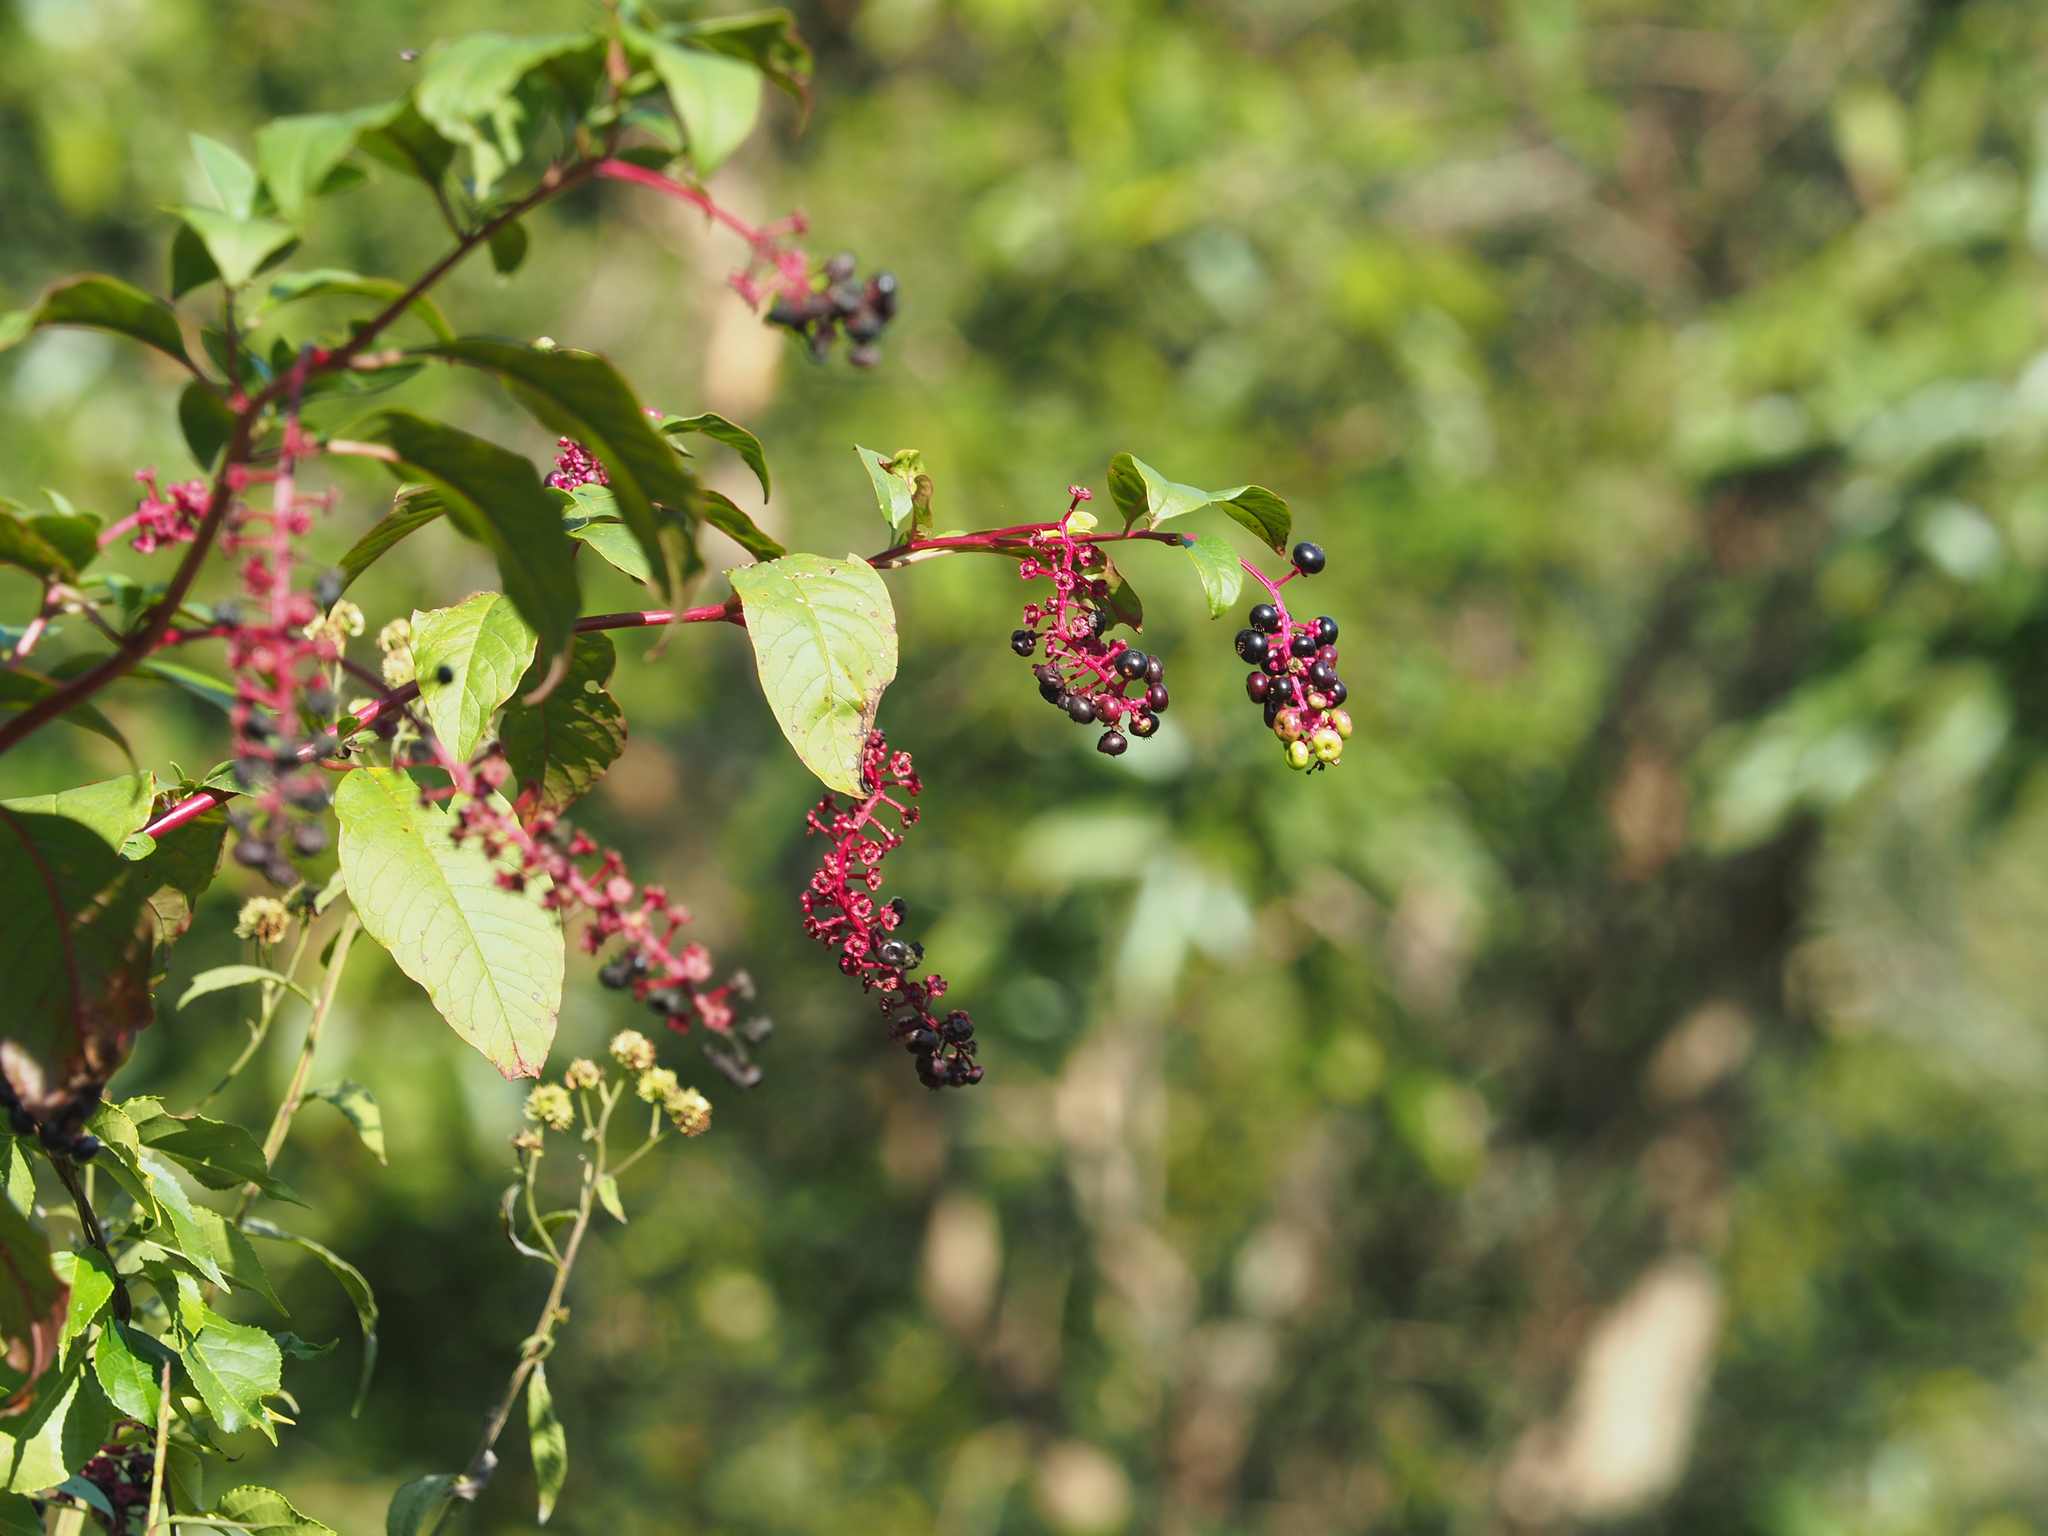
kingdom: Plantae
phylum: Tracheophyta
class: Magnoliopsida
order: Caryophyllales
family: Phytolaccaceae
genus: Phytolacca
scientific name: Phytolacca americana
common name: American pokeweed
